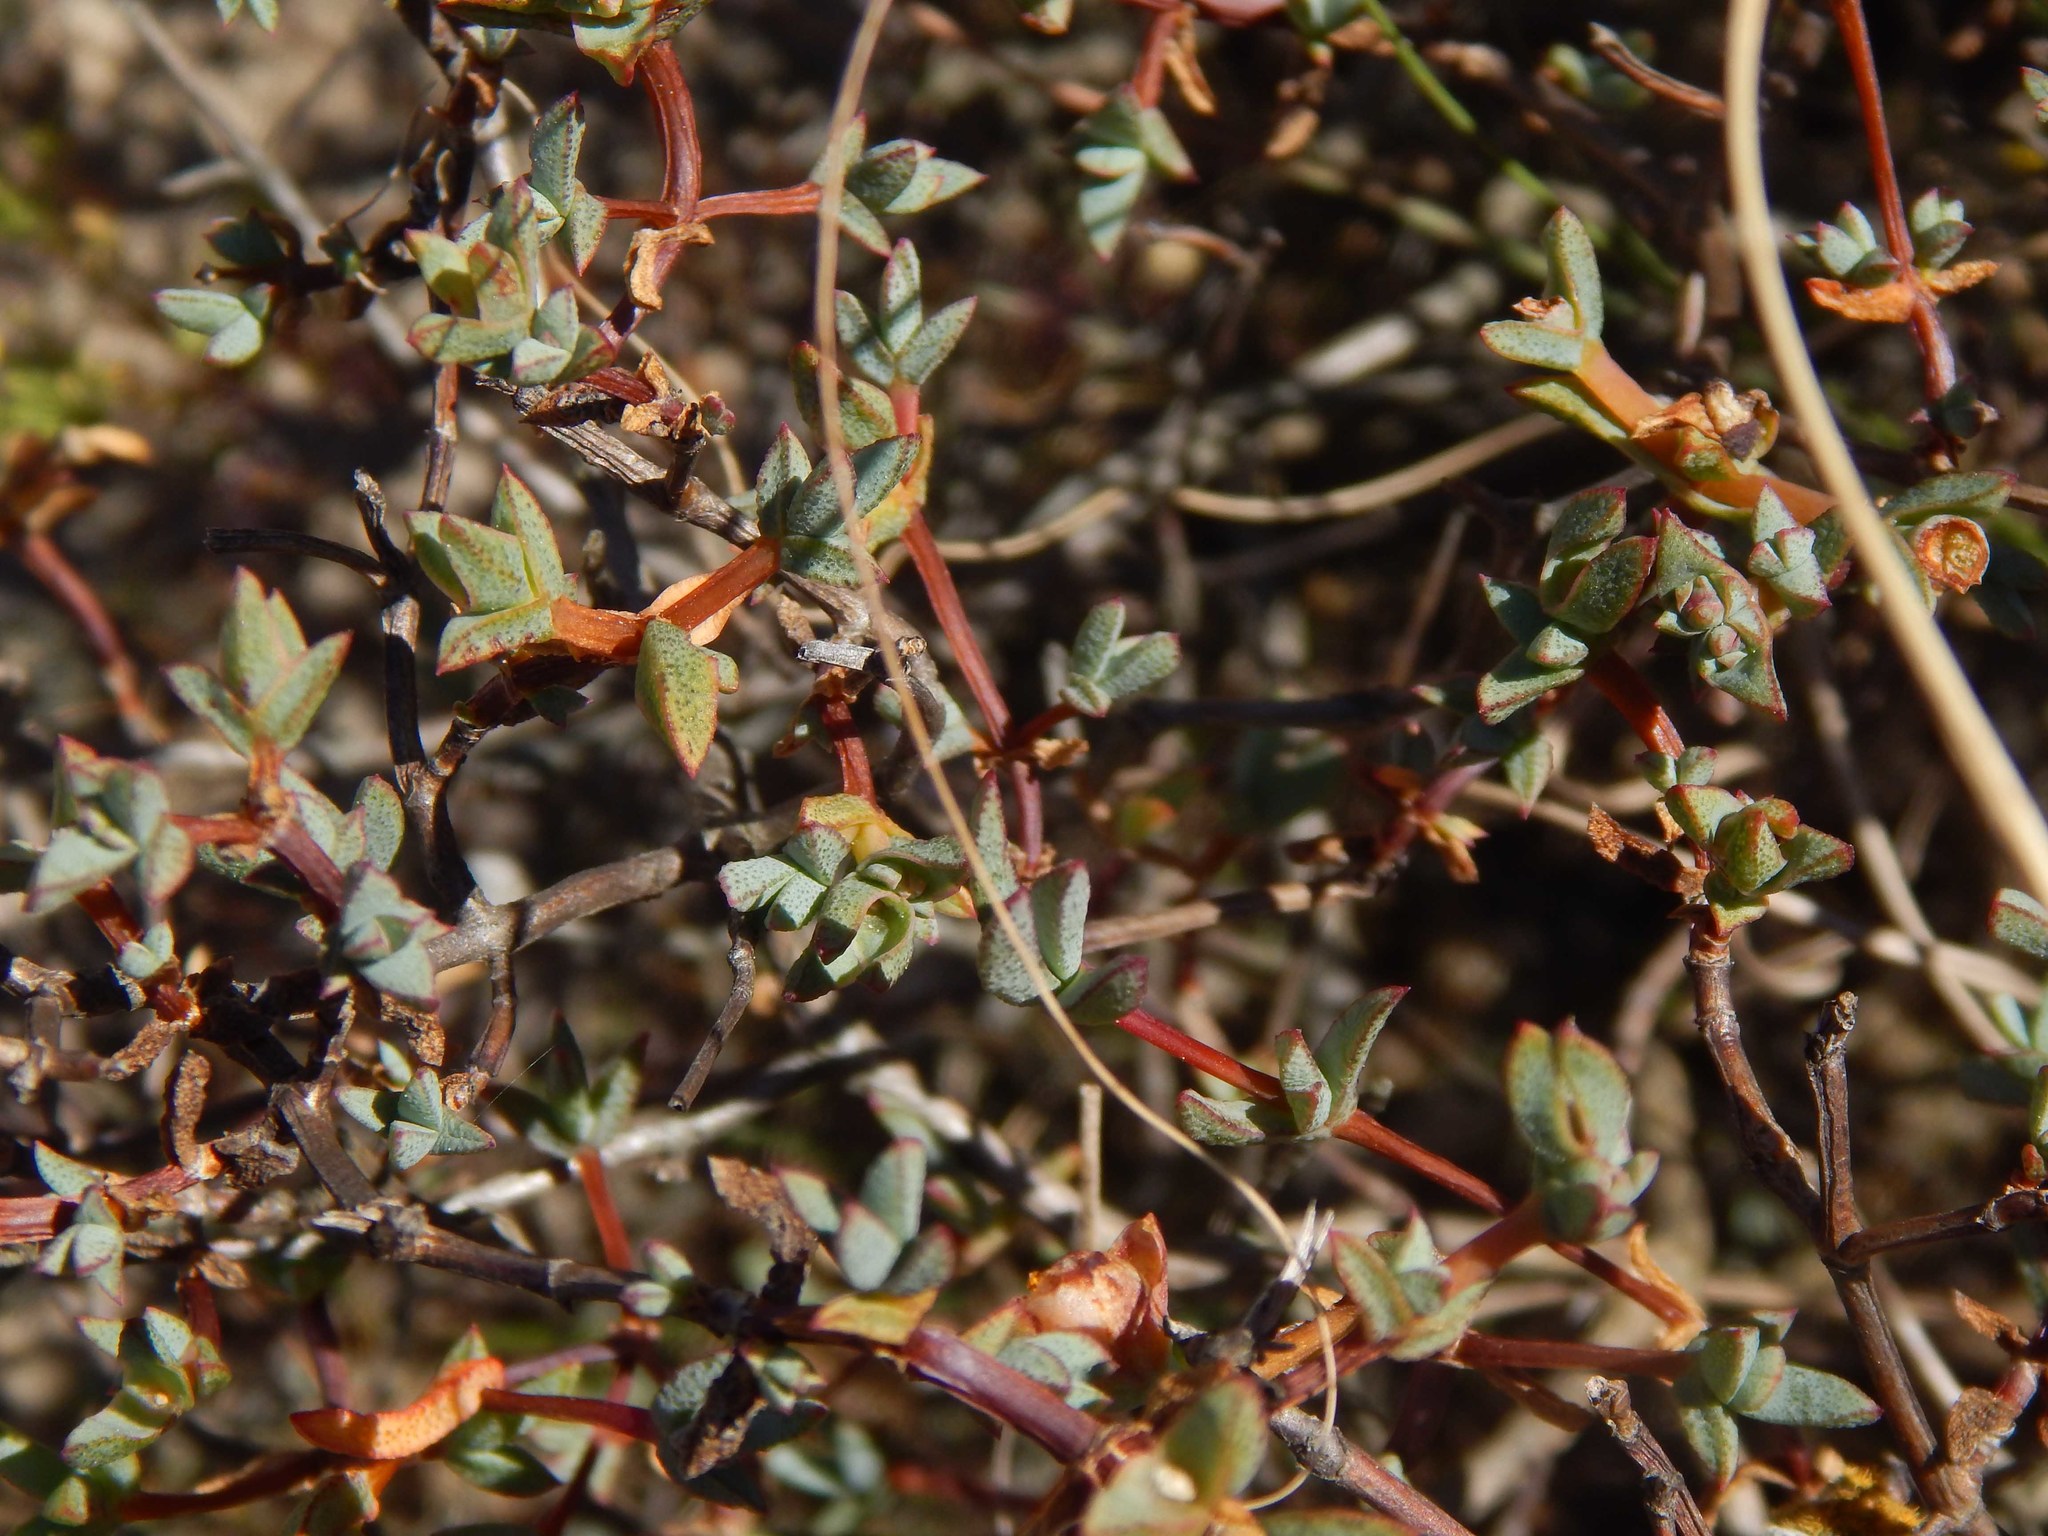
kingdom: Plantae
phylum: Tracheophyta
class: Magnoliopsida
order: Caryophyllales
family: Aizoaceae
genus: Lampranthus
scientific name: Lampranthus glaucus
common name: Noonflower
